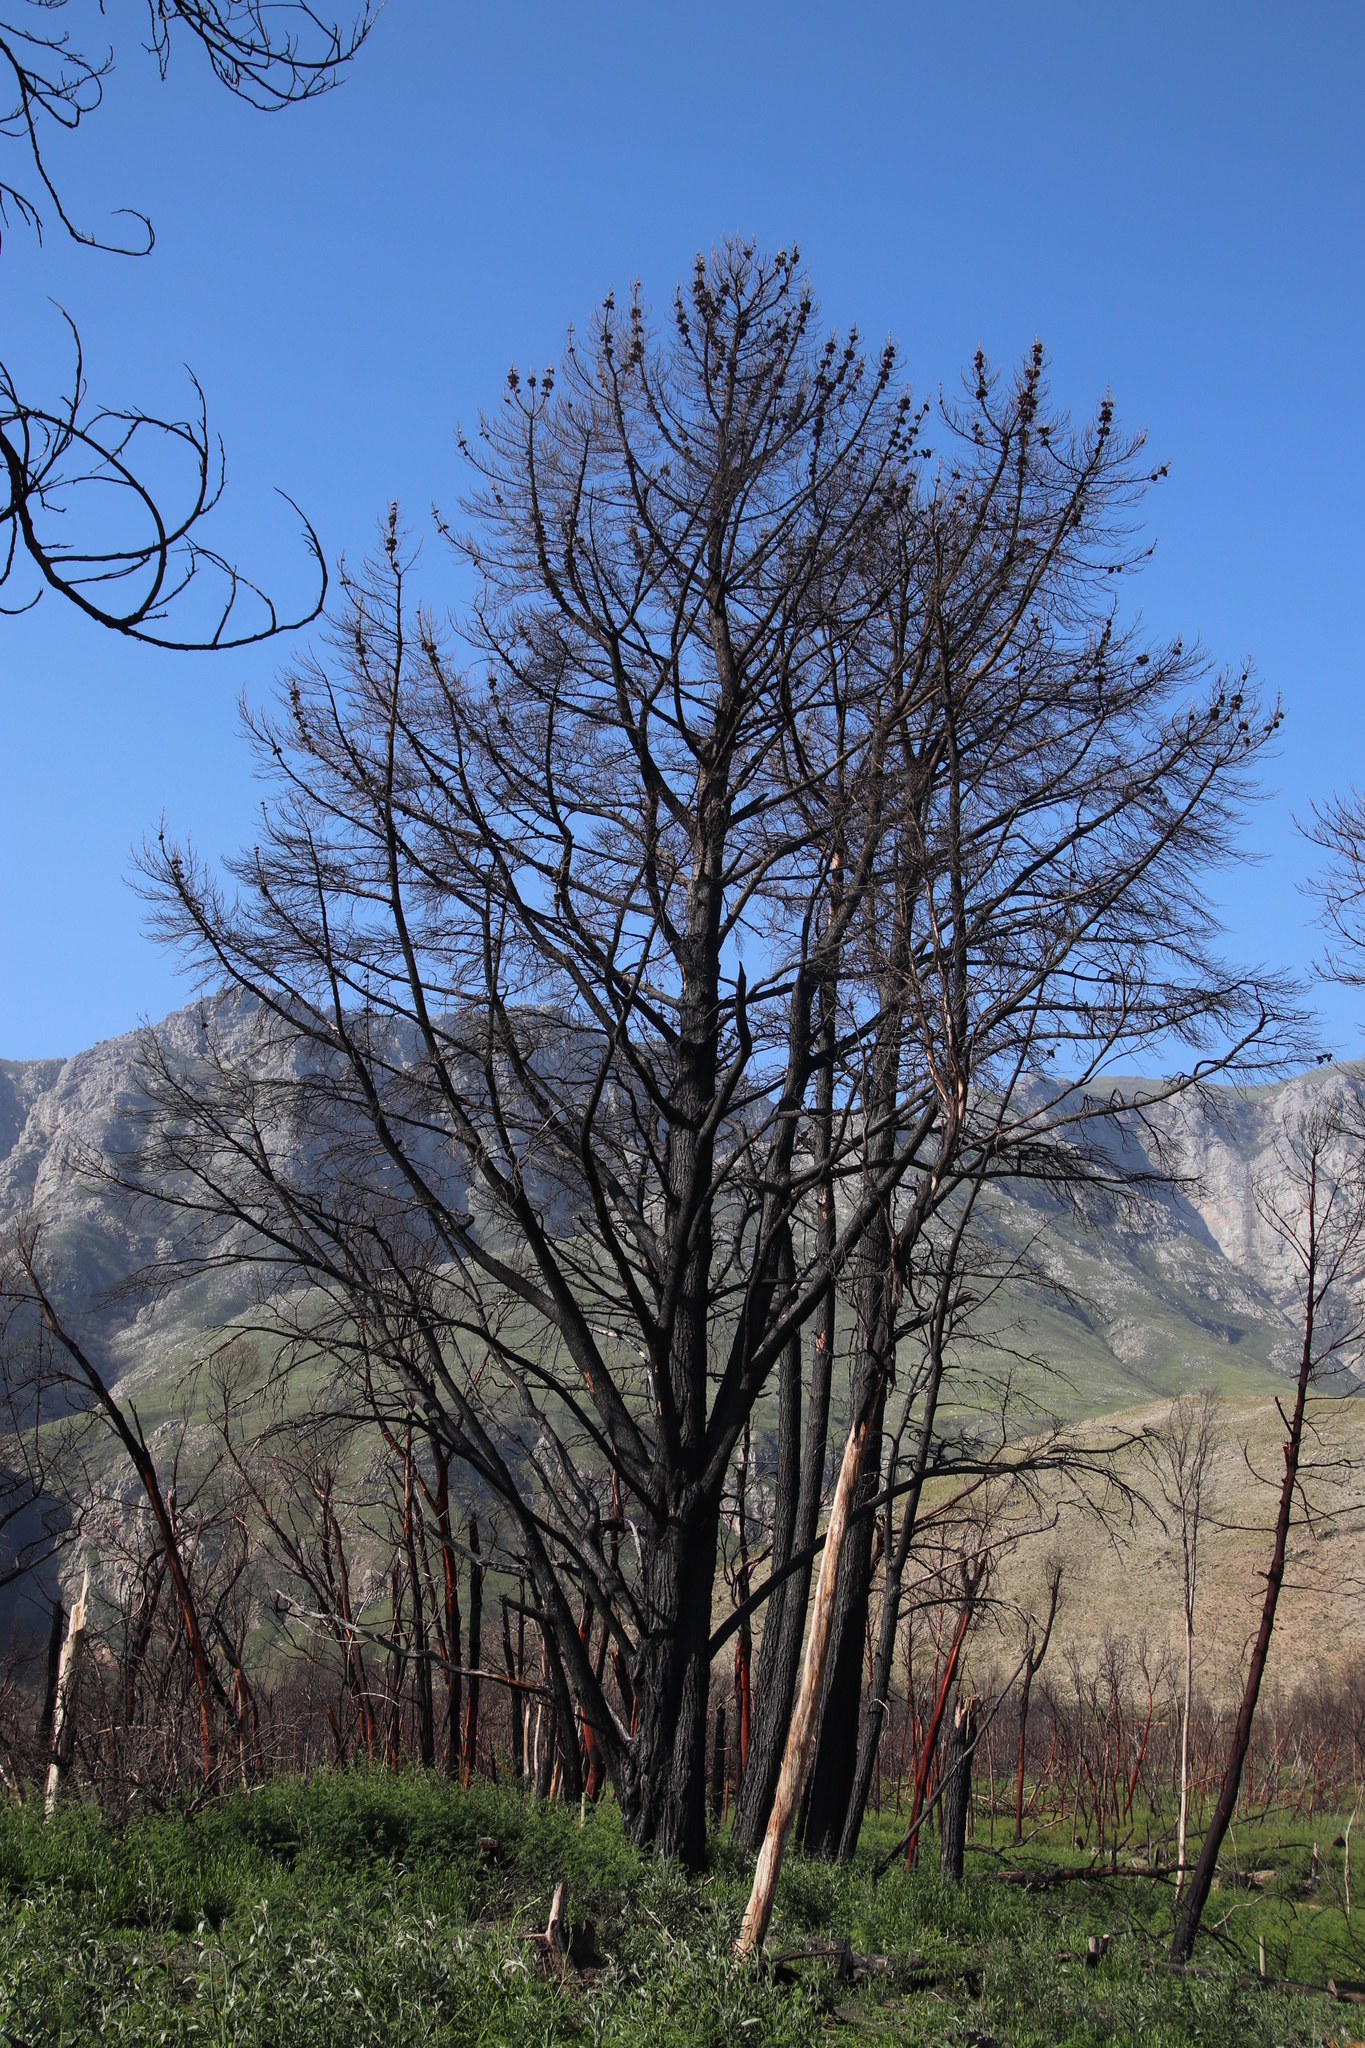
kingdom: Plantae
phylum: Tracheophyta
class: Pinopsida
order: Pinales
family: Pinaceae
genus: Pinus
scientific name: Pinus radiata
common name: Monterey pine
